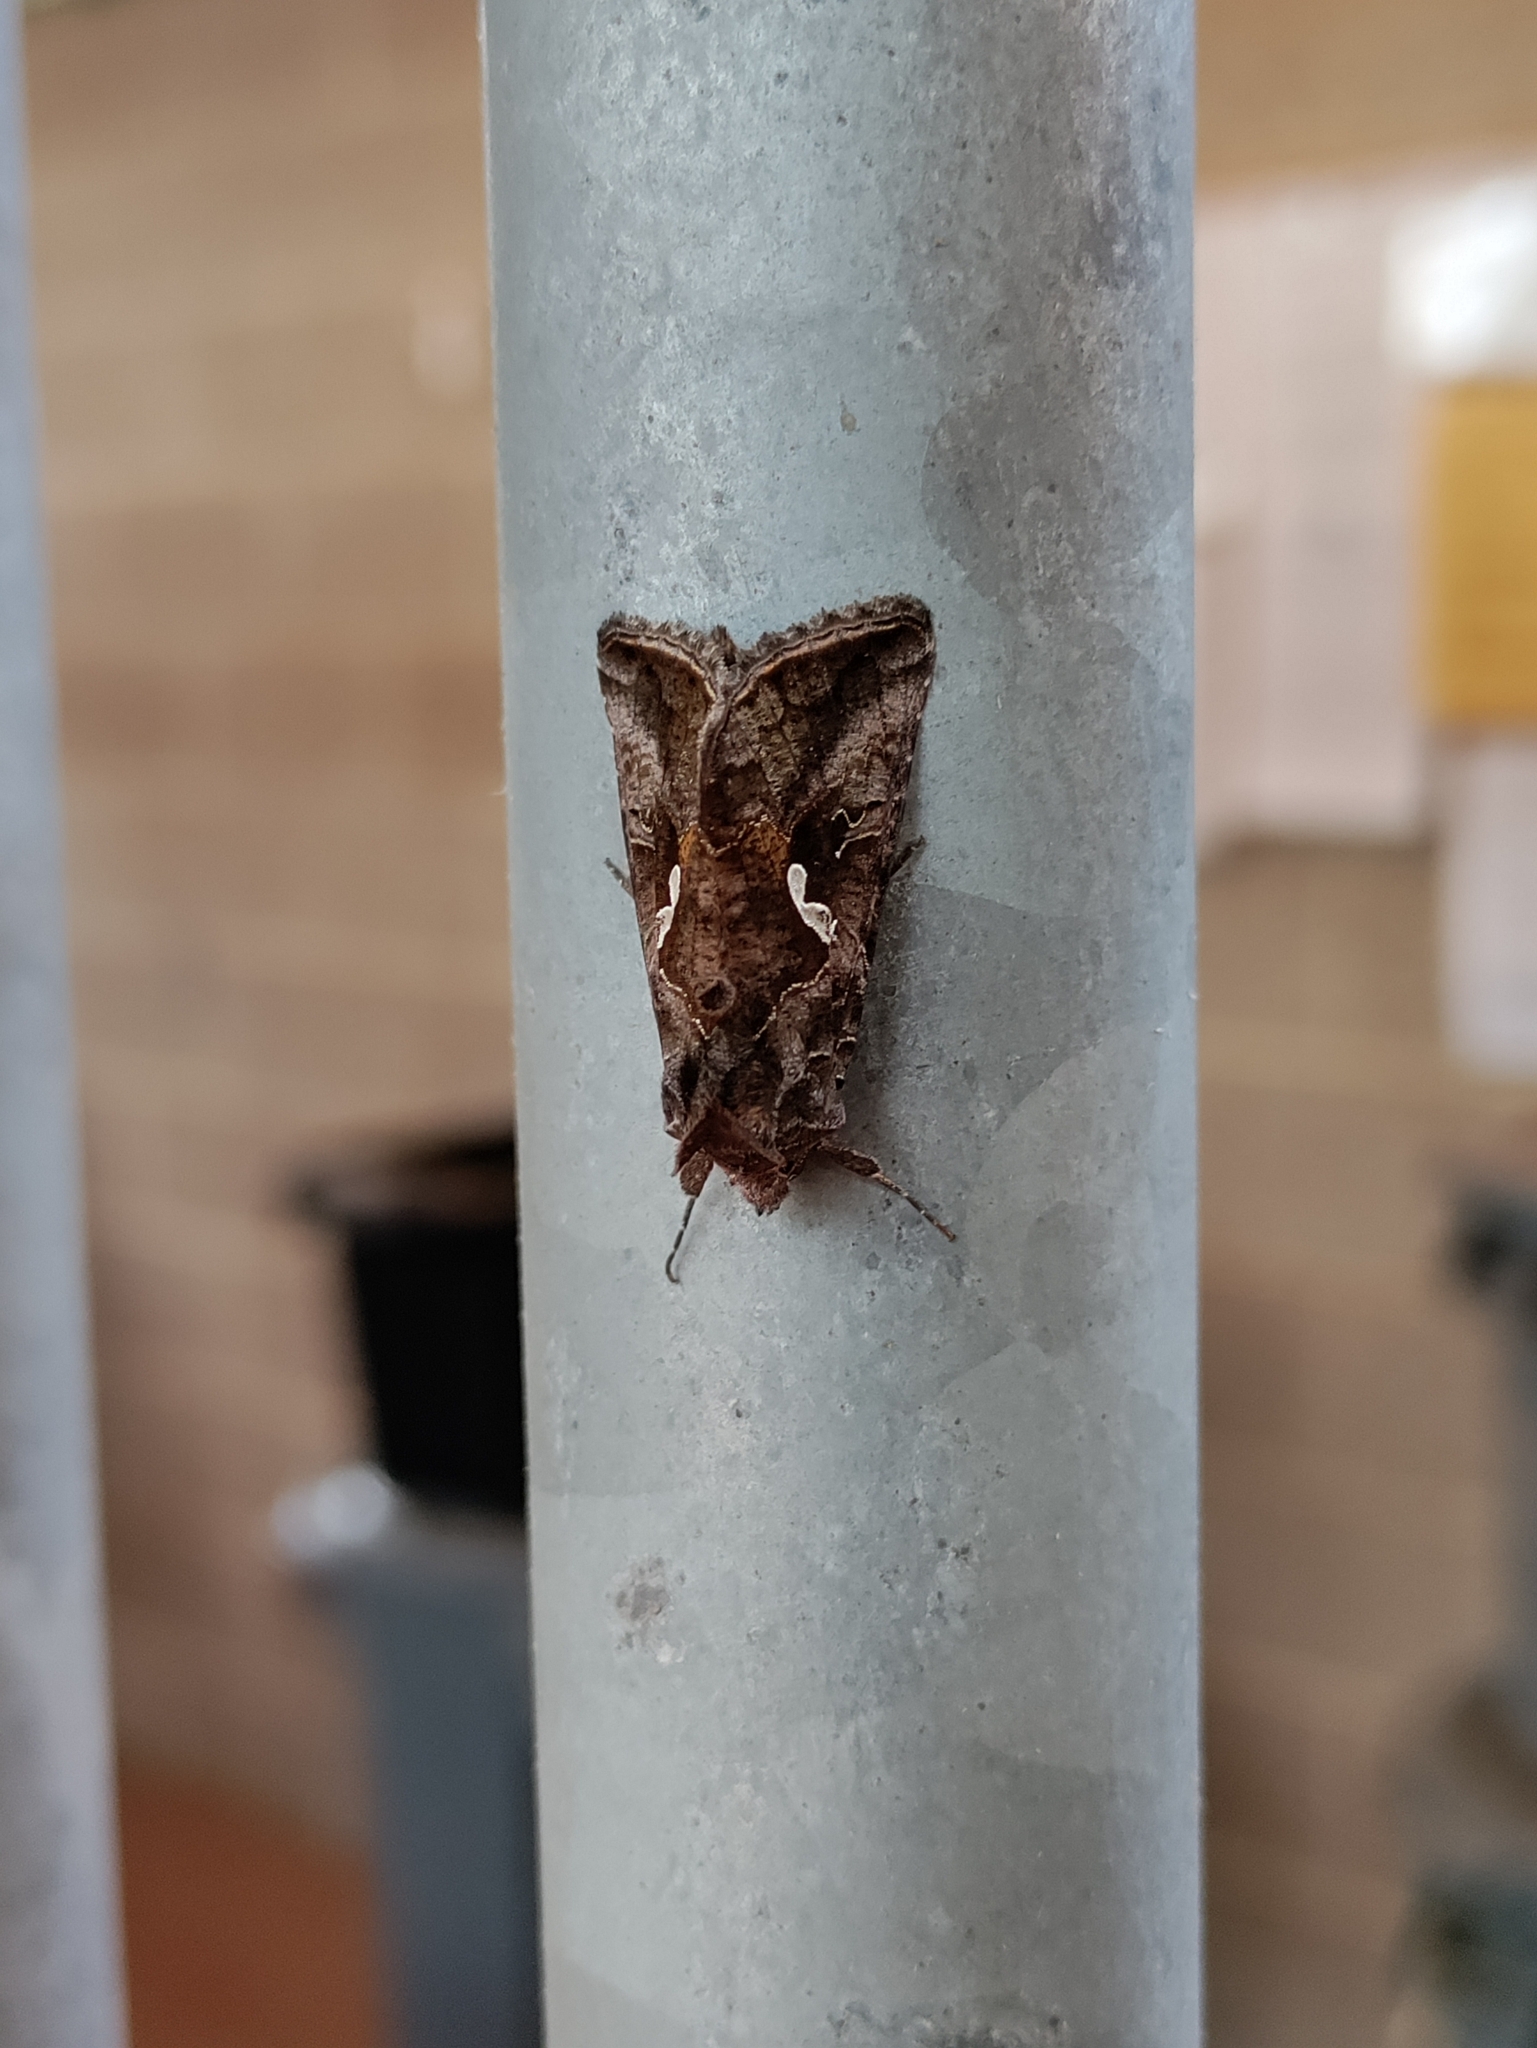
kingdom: Animalia
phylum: Arthropoda
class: Insecta
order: Lepidoptera
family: Noctuidae
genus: Autographa
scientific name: Autographa precationis
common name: Common looper moth
